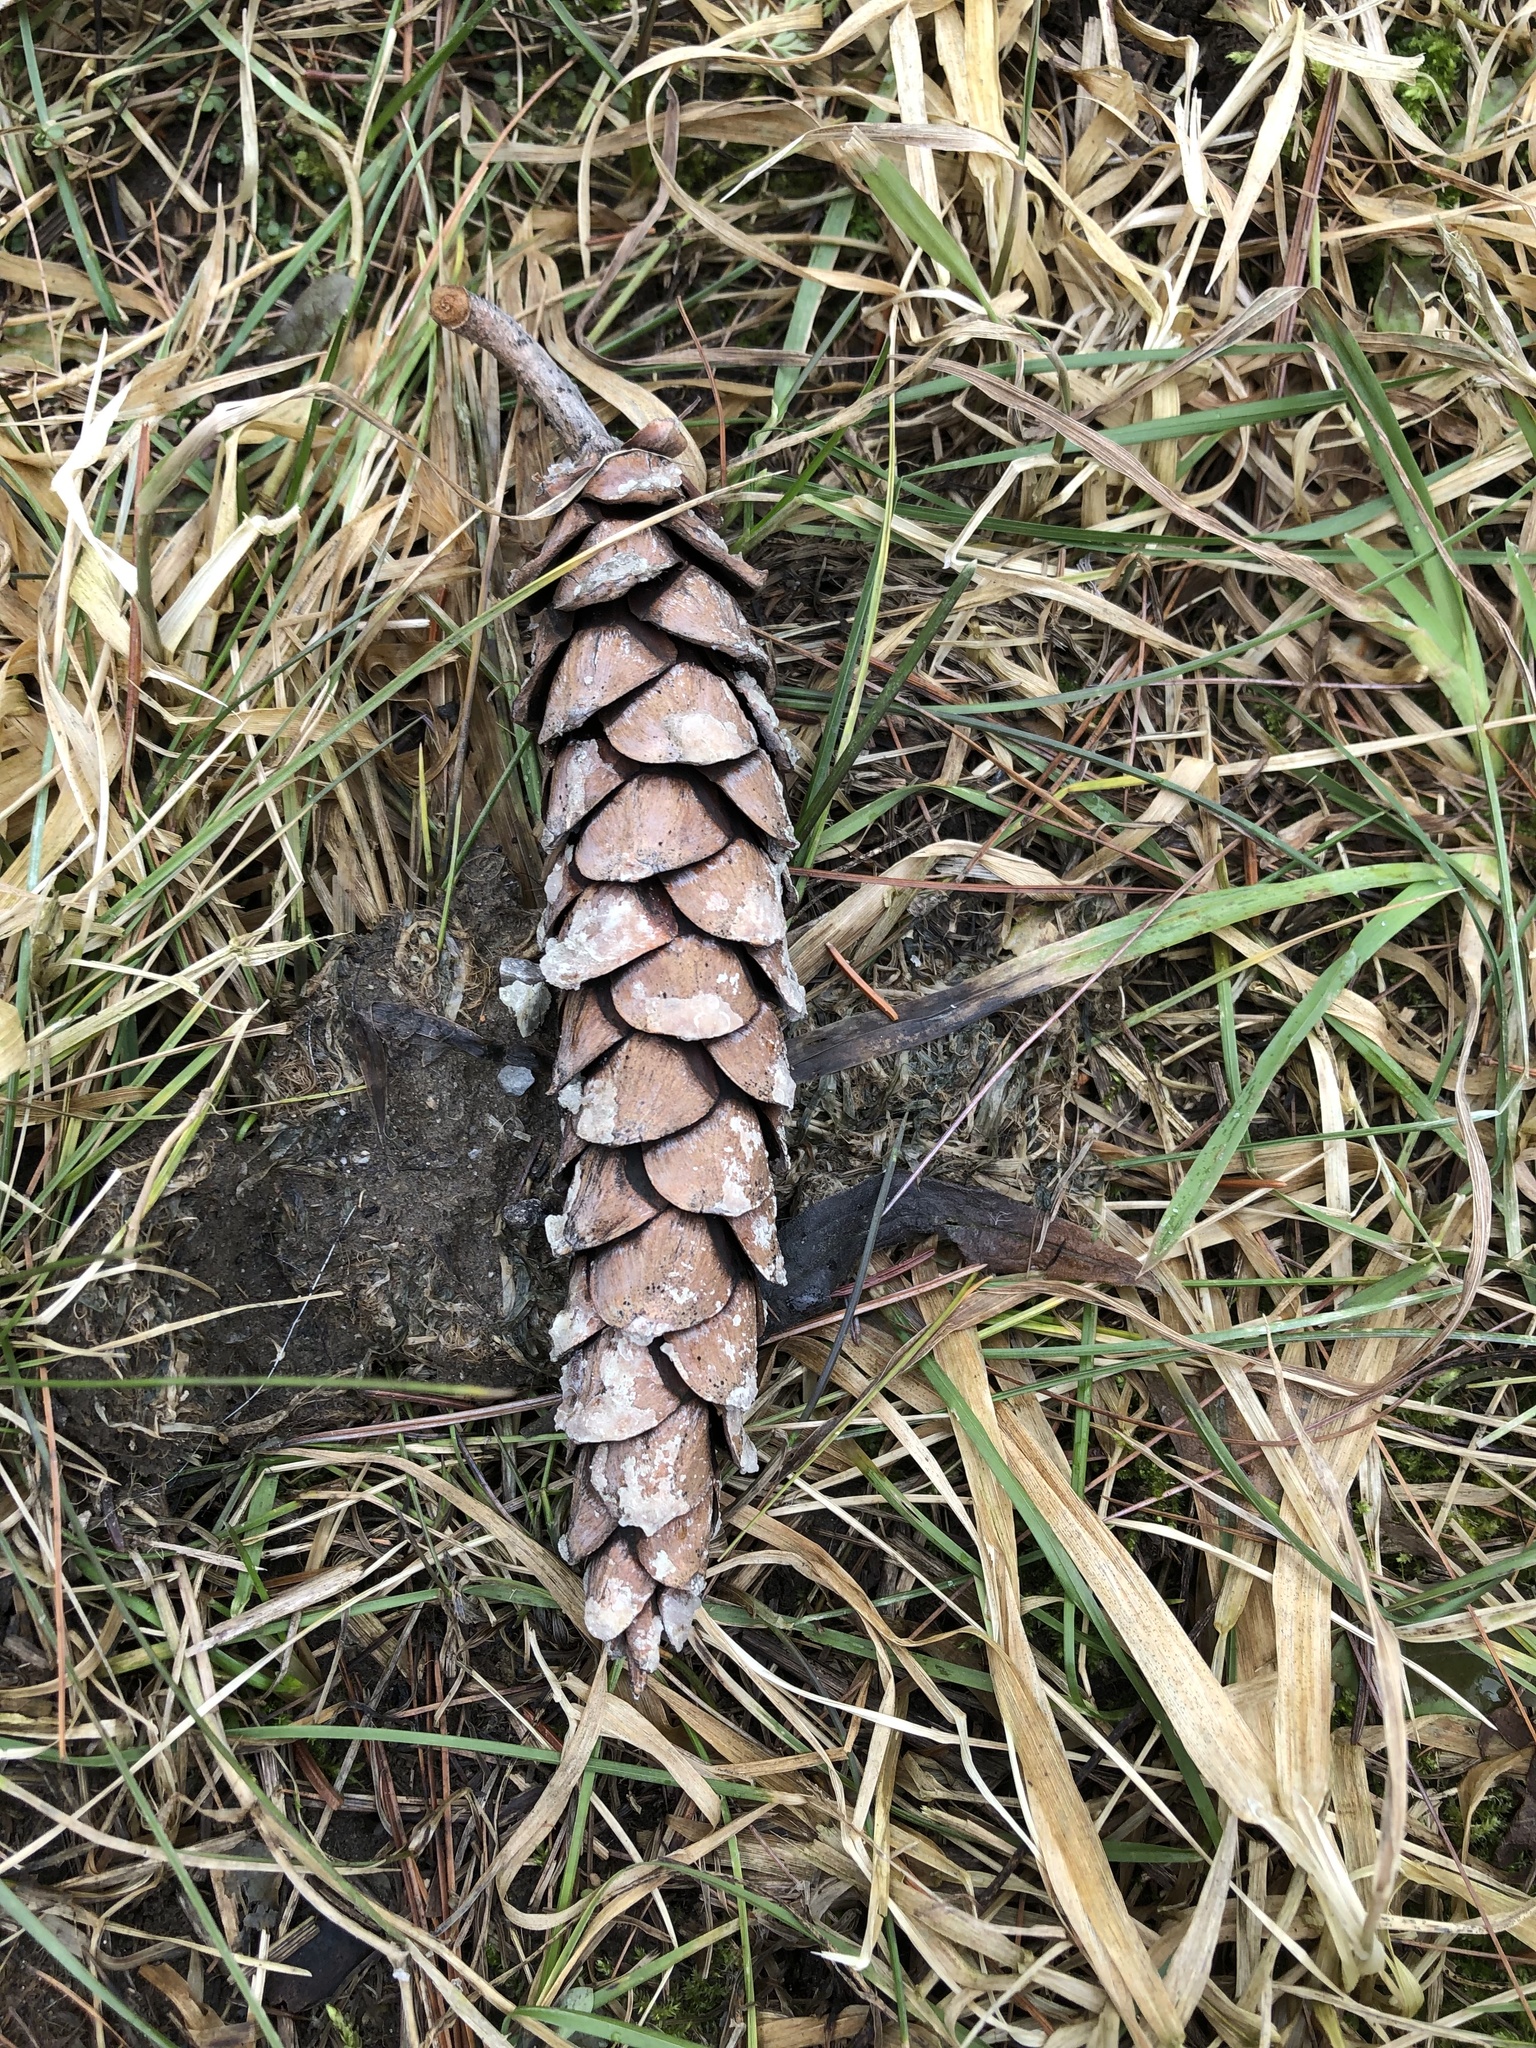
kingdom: Plantae
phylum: Tracheophyta
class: Pinopsida
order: Pinales
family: Pinaceae
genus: Pinus
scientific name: Pinus strobus
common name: Weymouth pine
